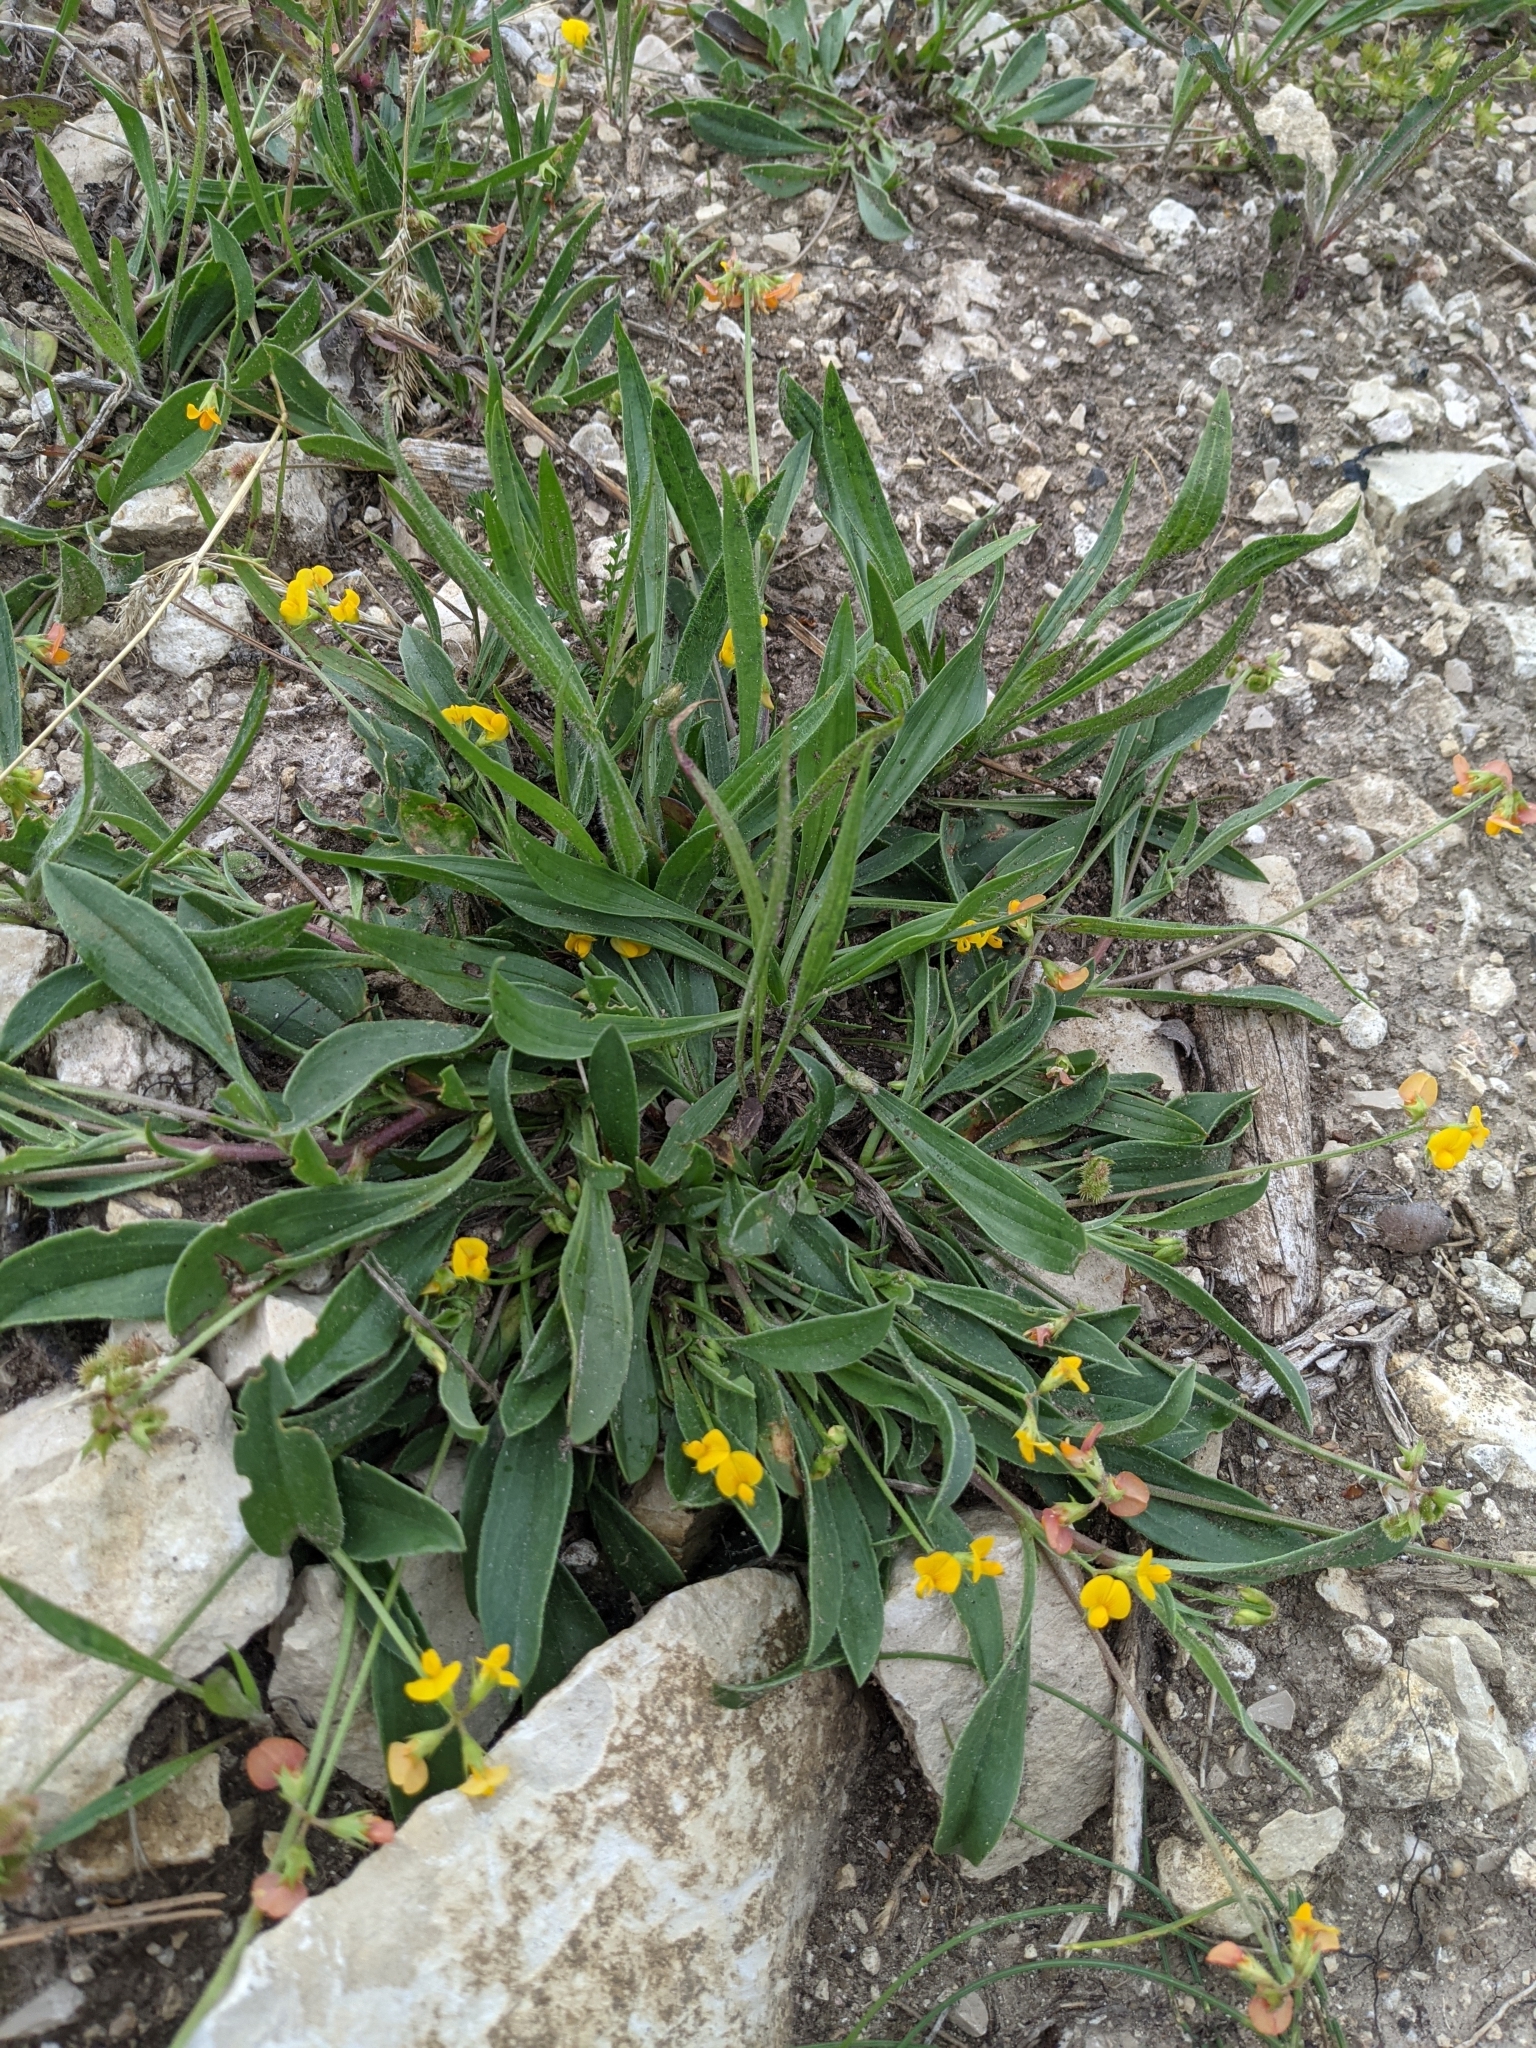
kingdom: Plantae
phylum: Tracheophyta
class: Magnoliopsida
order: Fabales
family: Fabaceae
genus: Scorpiurus
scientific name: Scorpiurus muricatus
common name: Caterpillar-plant
